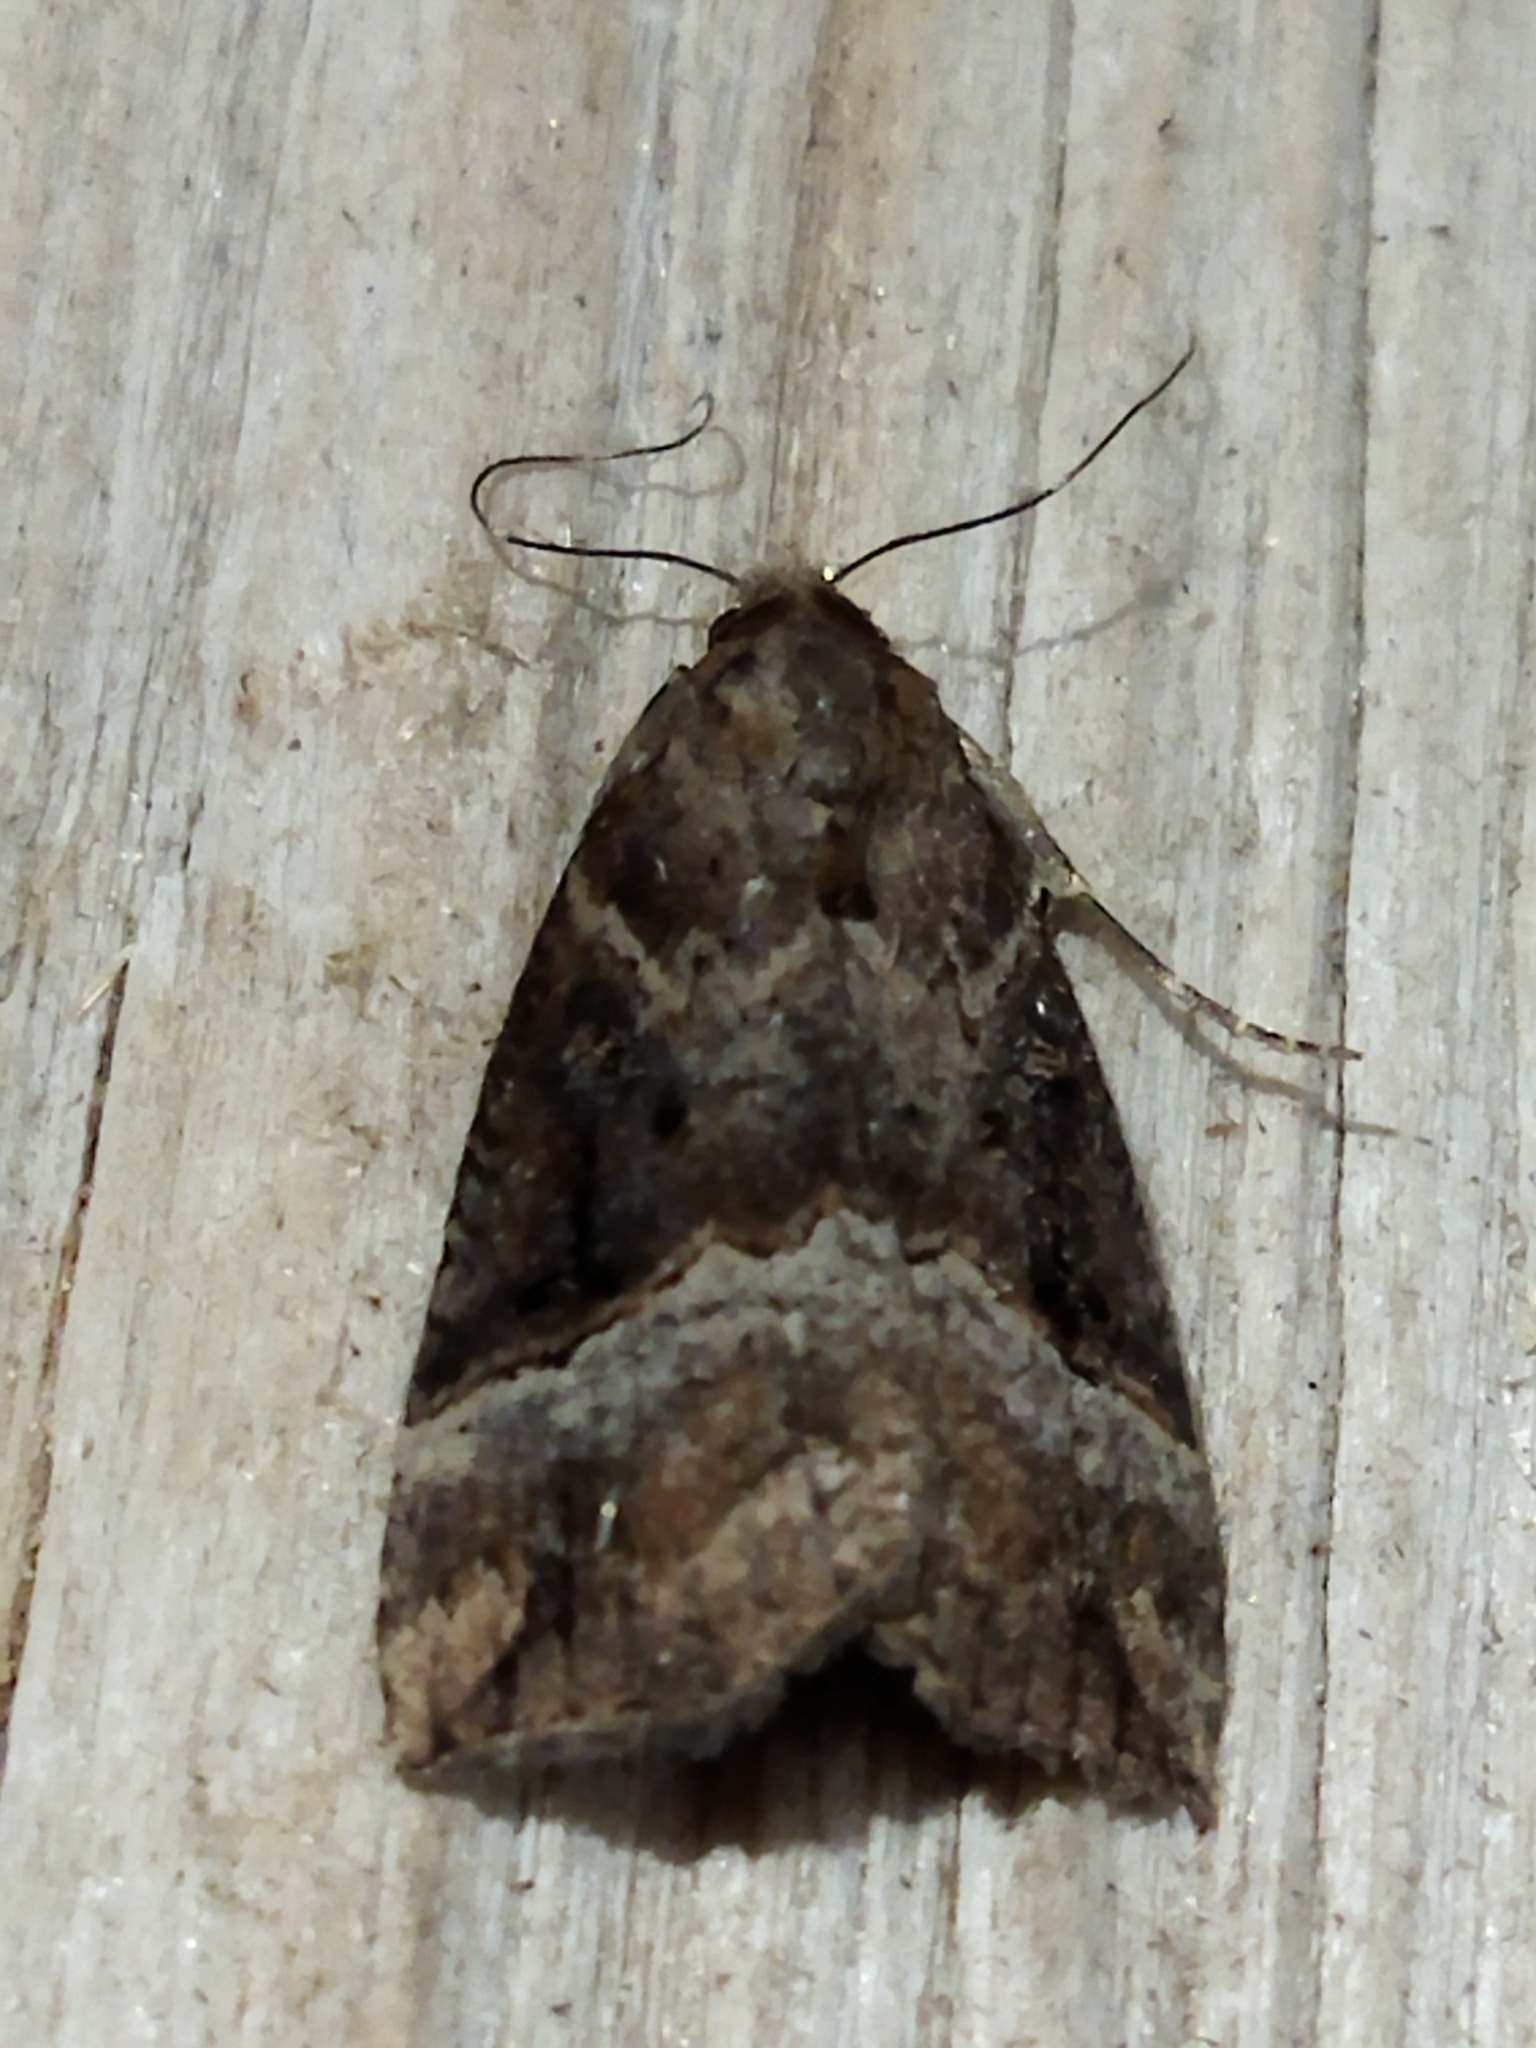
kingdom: Animalia
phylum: Arthropoda
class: Insecta
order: Lepidoptera
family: Erebidae
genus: Hypena
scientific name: Hypena rostralis
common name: Buttoned snout
